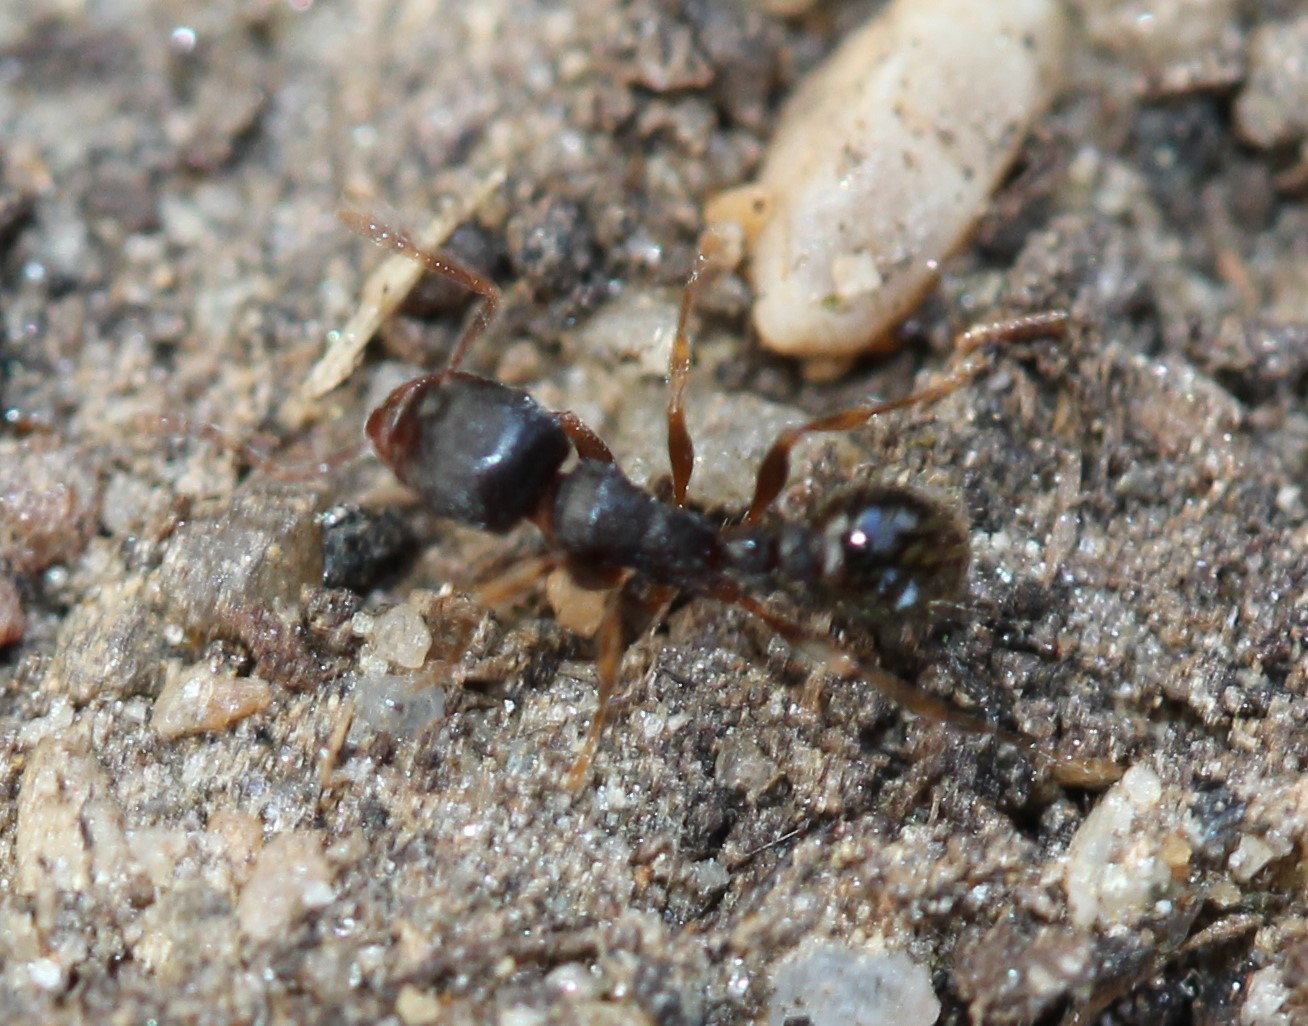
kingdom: Animalia
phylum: Arthropoda
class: Insecta
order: Hymenoptera
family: Formicidae
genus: Tetramorium
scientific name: Tetramorium immigrans
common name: Pavement ant
